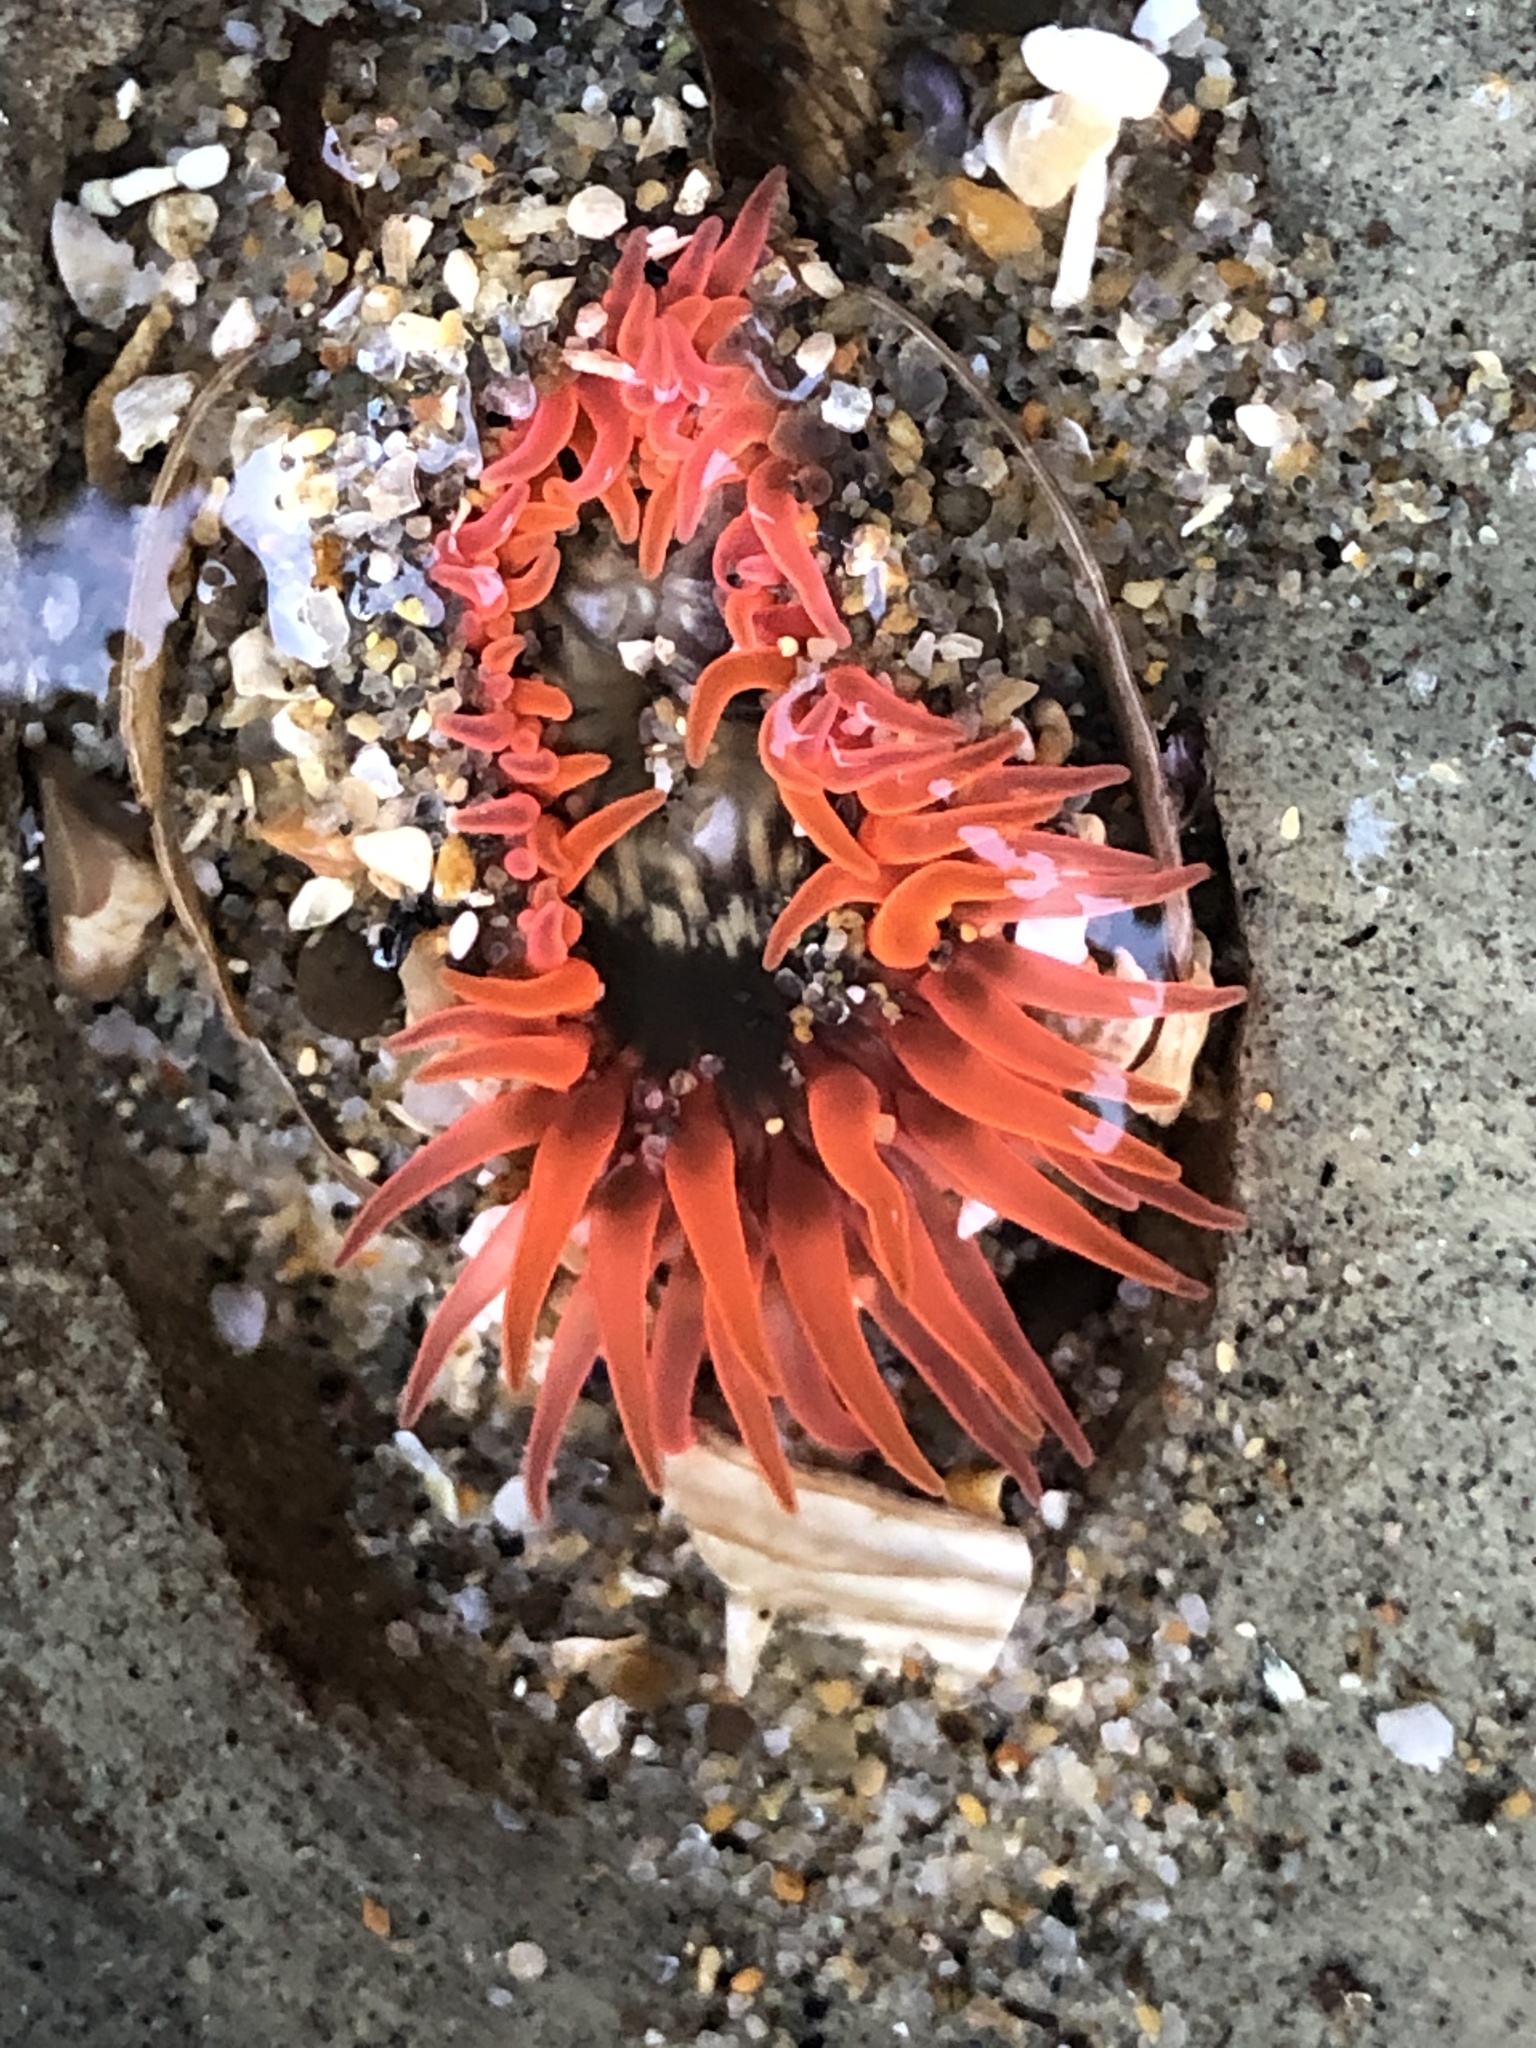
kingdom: Animalia
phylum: Cnidaria
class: Anthozoa
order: Actiniaria
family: Actiniidae
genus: Anthopleura
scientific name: Anthopleura artemisia
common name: Buried sea anemone
